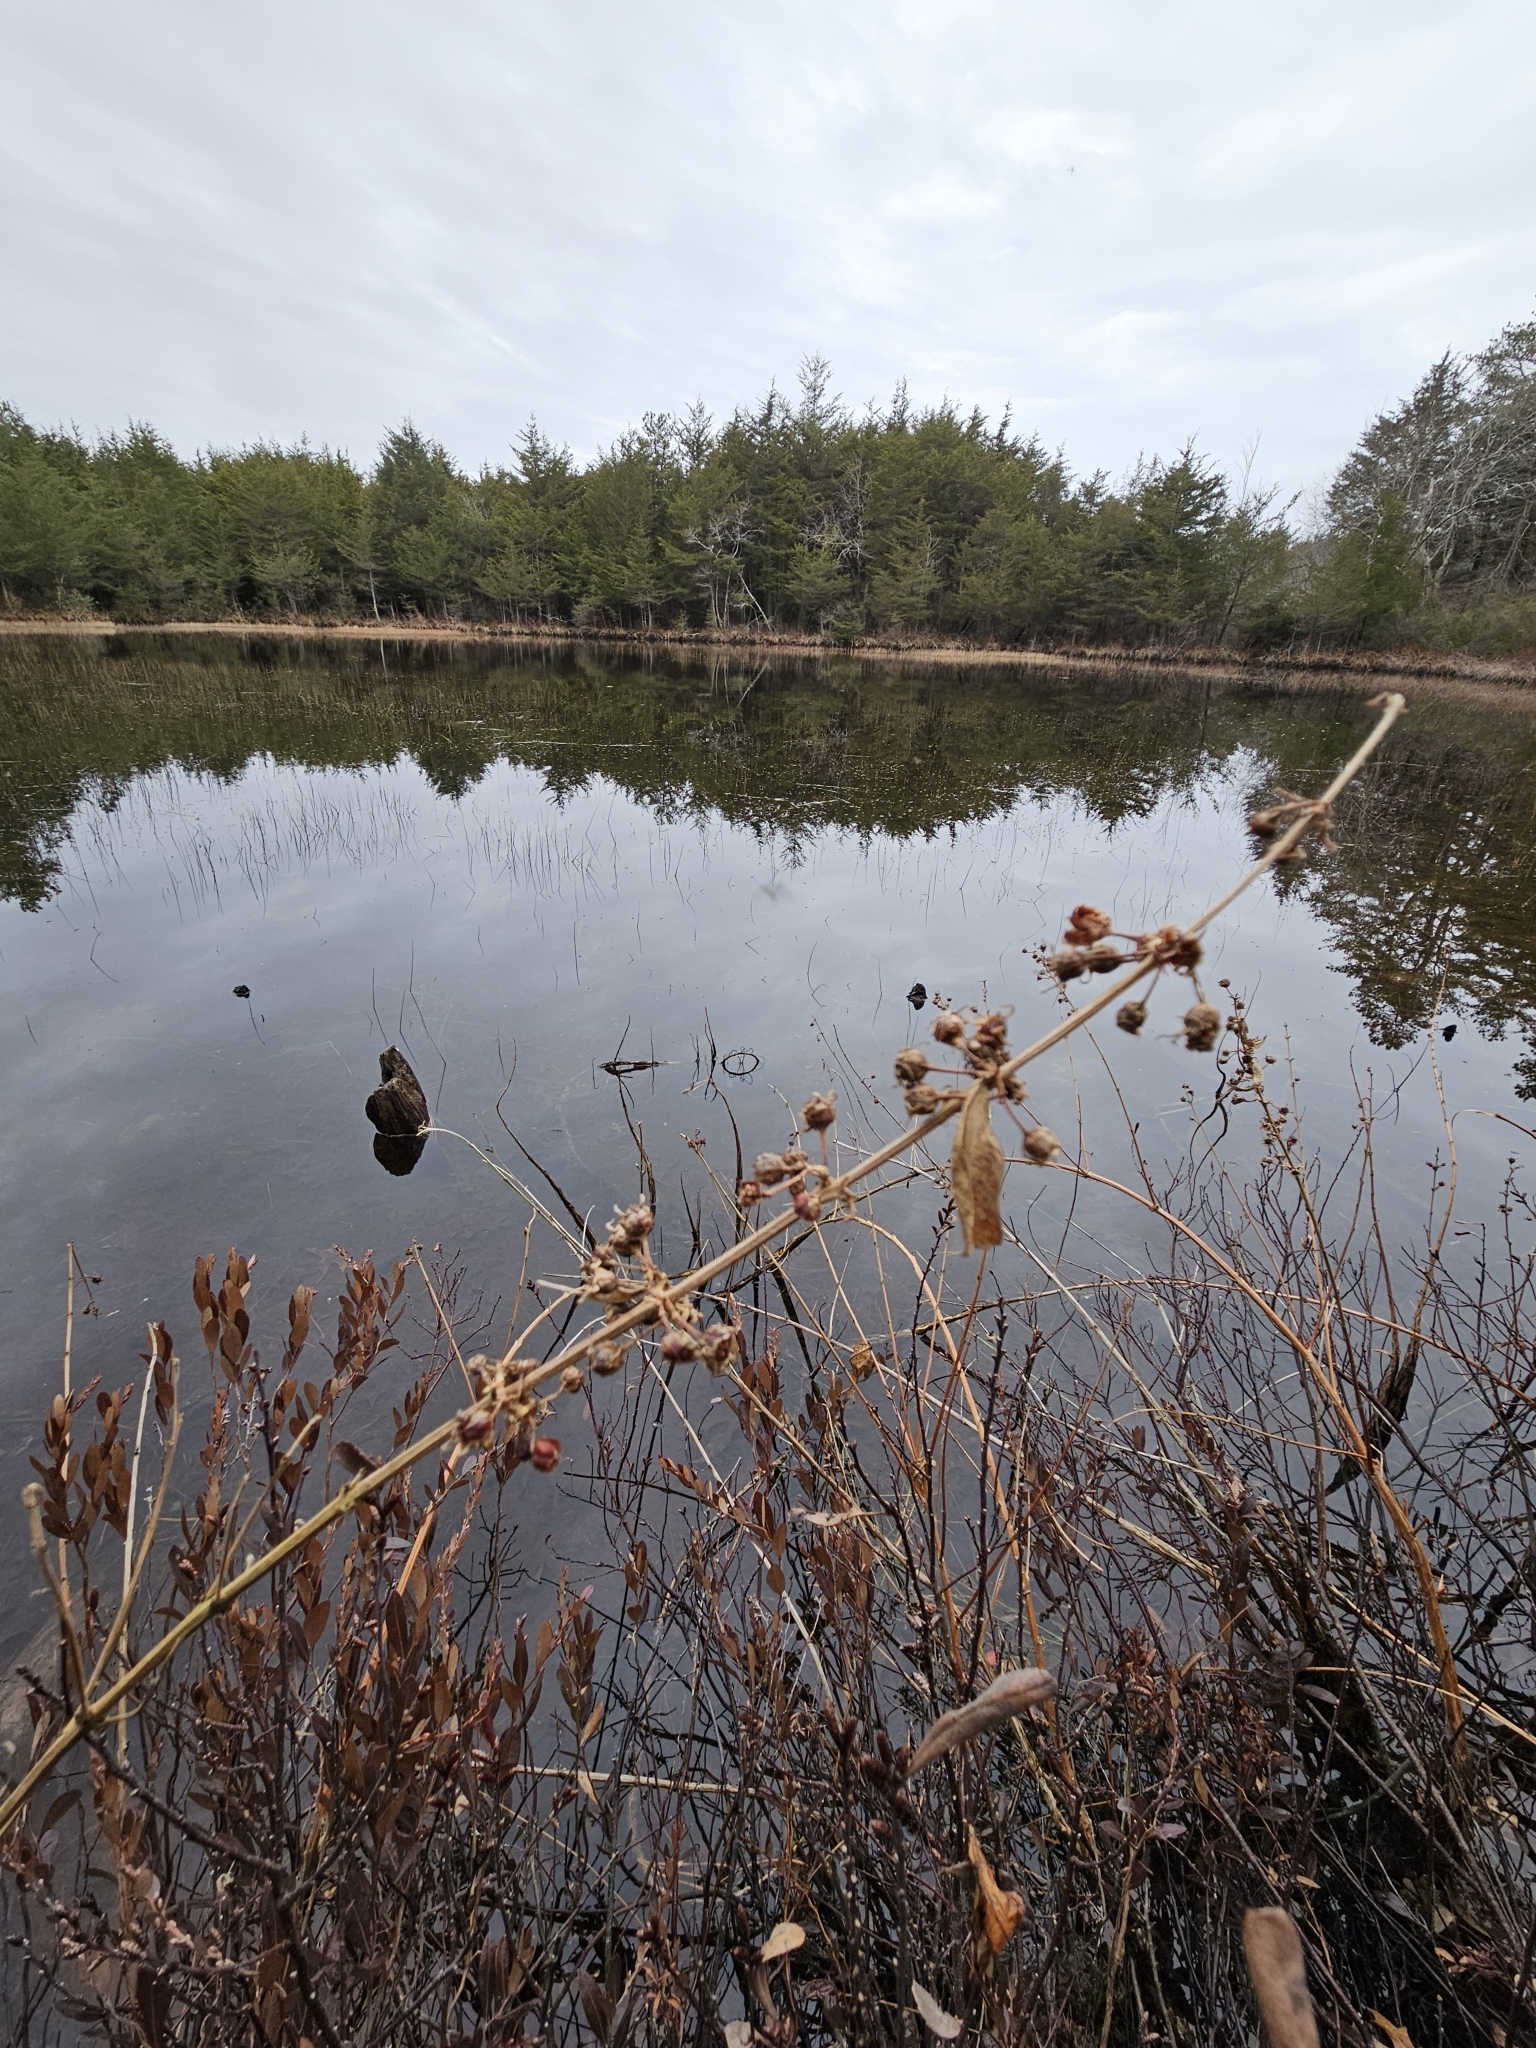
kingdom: Plantae
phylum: Tracheophyta
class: Magnoliopsida
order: Myrtales
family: Lythraceae
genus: Decodon
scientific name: Decodon verticillatus
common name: Hairy swamp loosestrife
